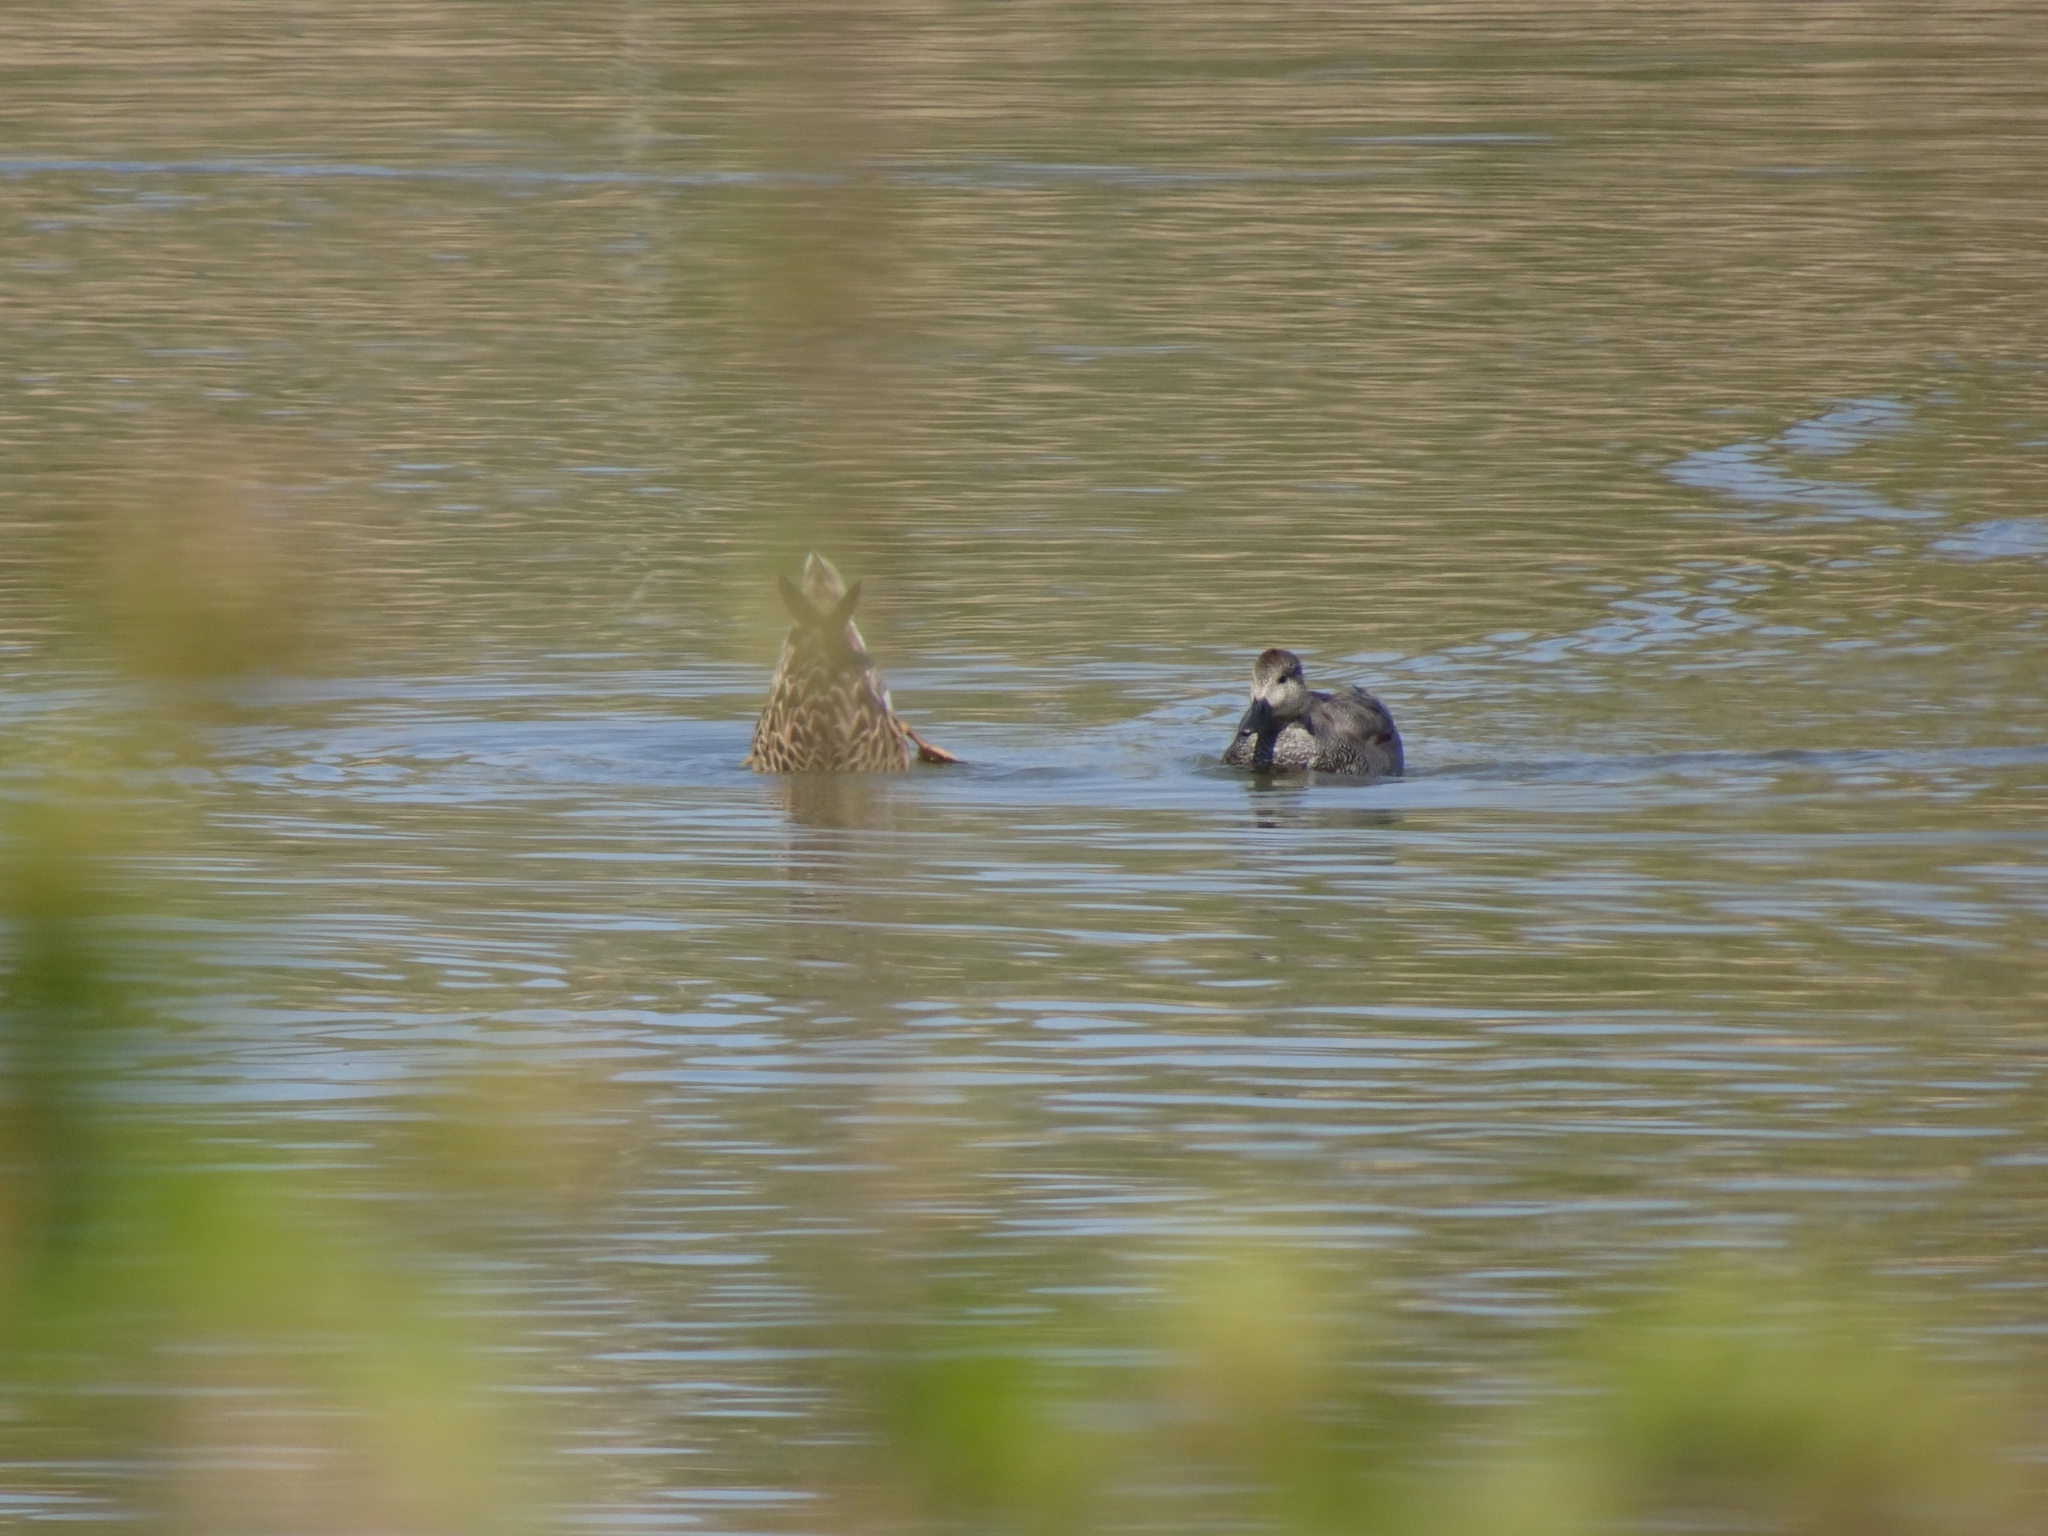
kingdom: Animalia
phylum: Chordata
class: Aves
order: Anseriformes
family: Anatidae
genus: Mareca
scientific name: Mareca strepera
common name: Gadwall
